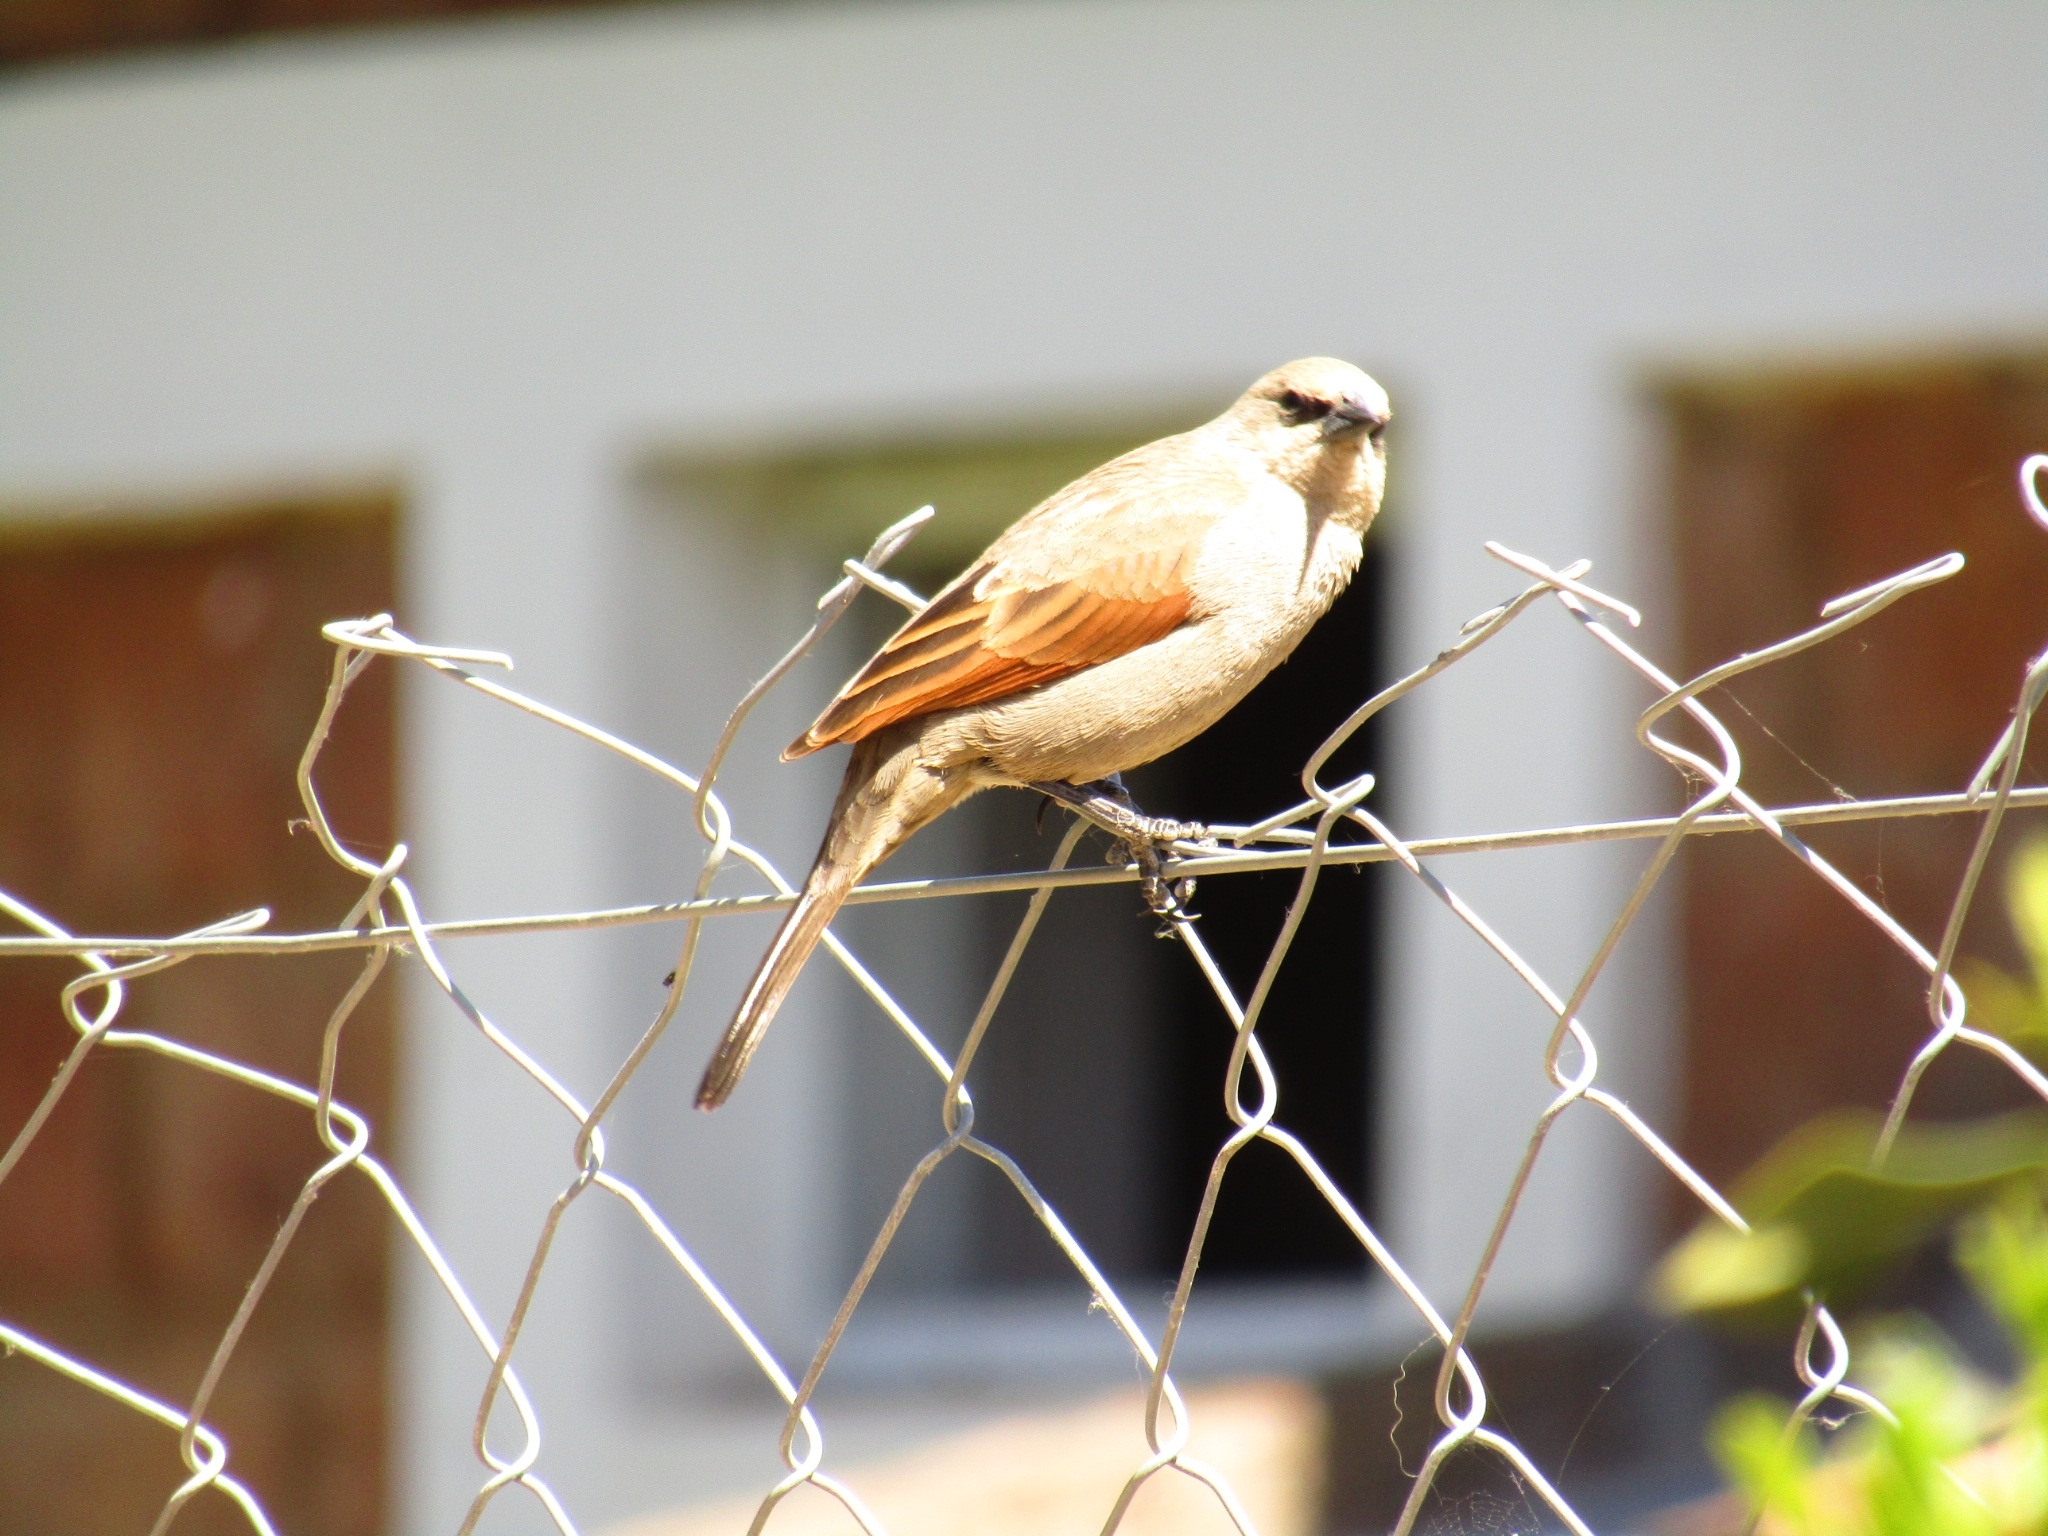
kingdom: Animalia
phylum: Chordata
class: Aves
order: Passeriformes
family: Icteridae
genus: Agelaioides
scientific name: Agelaioides badius
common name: Baywing
